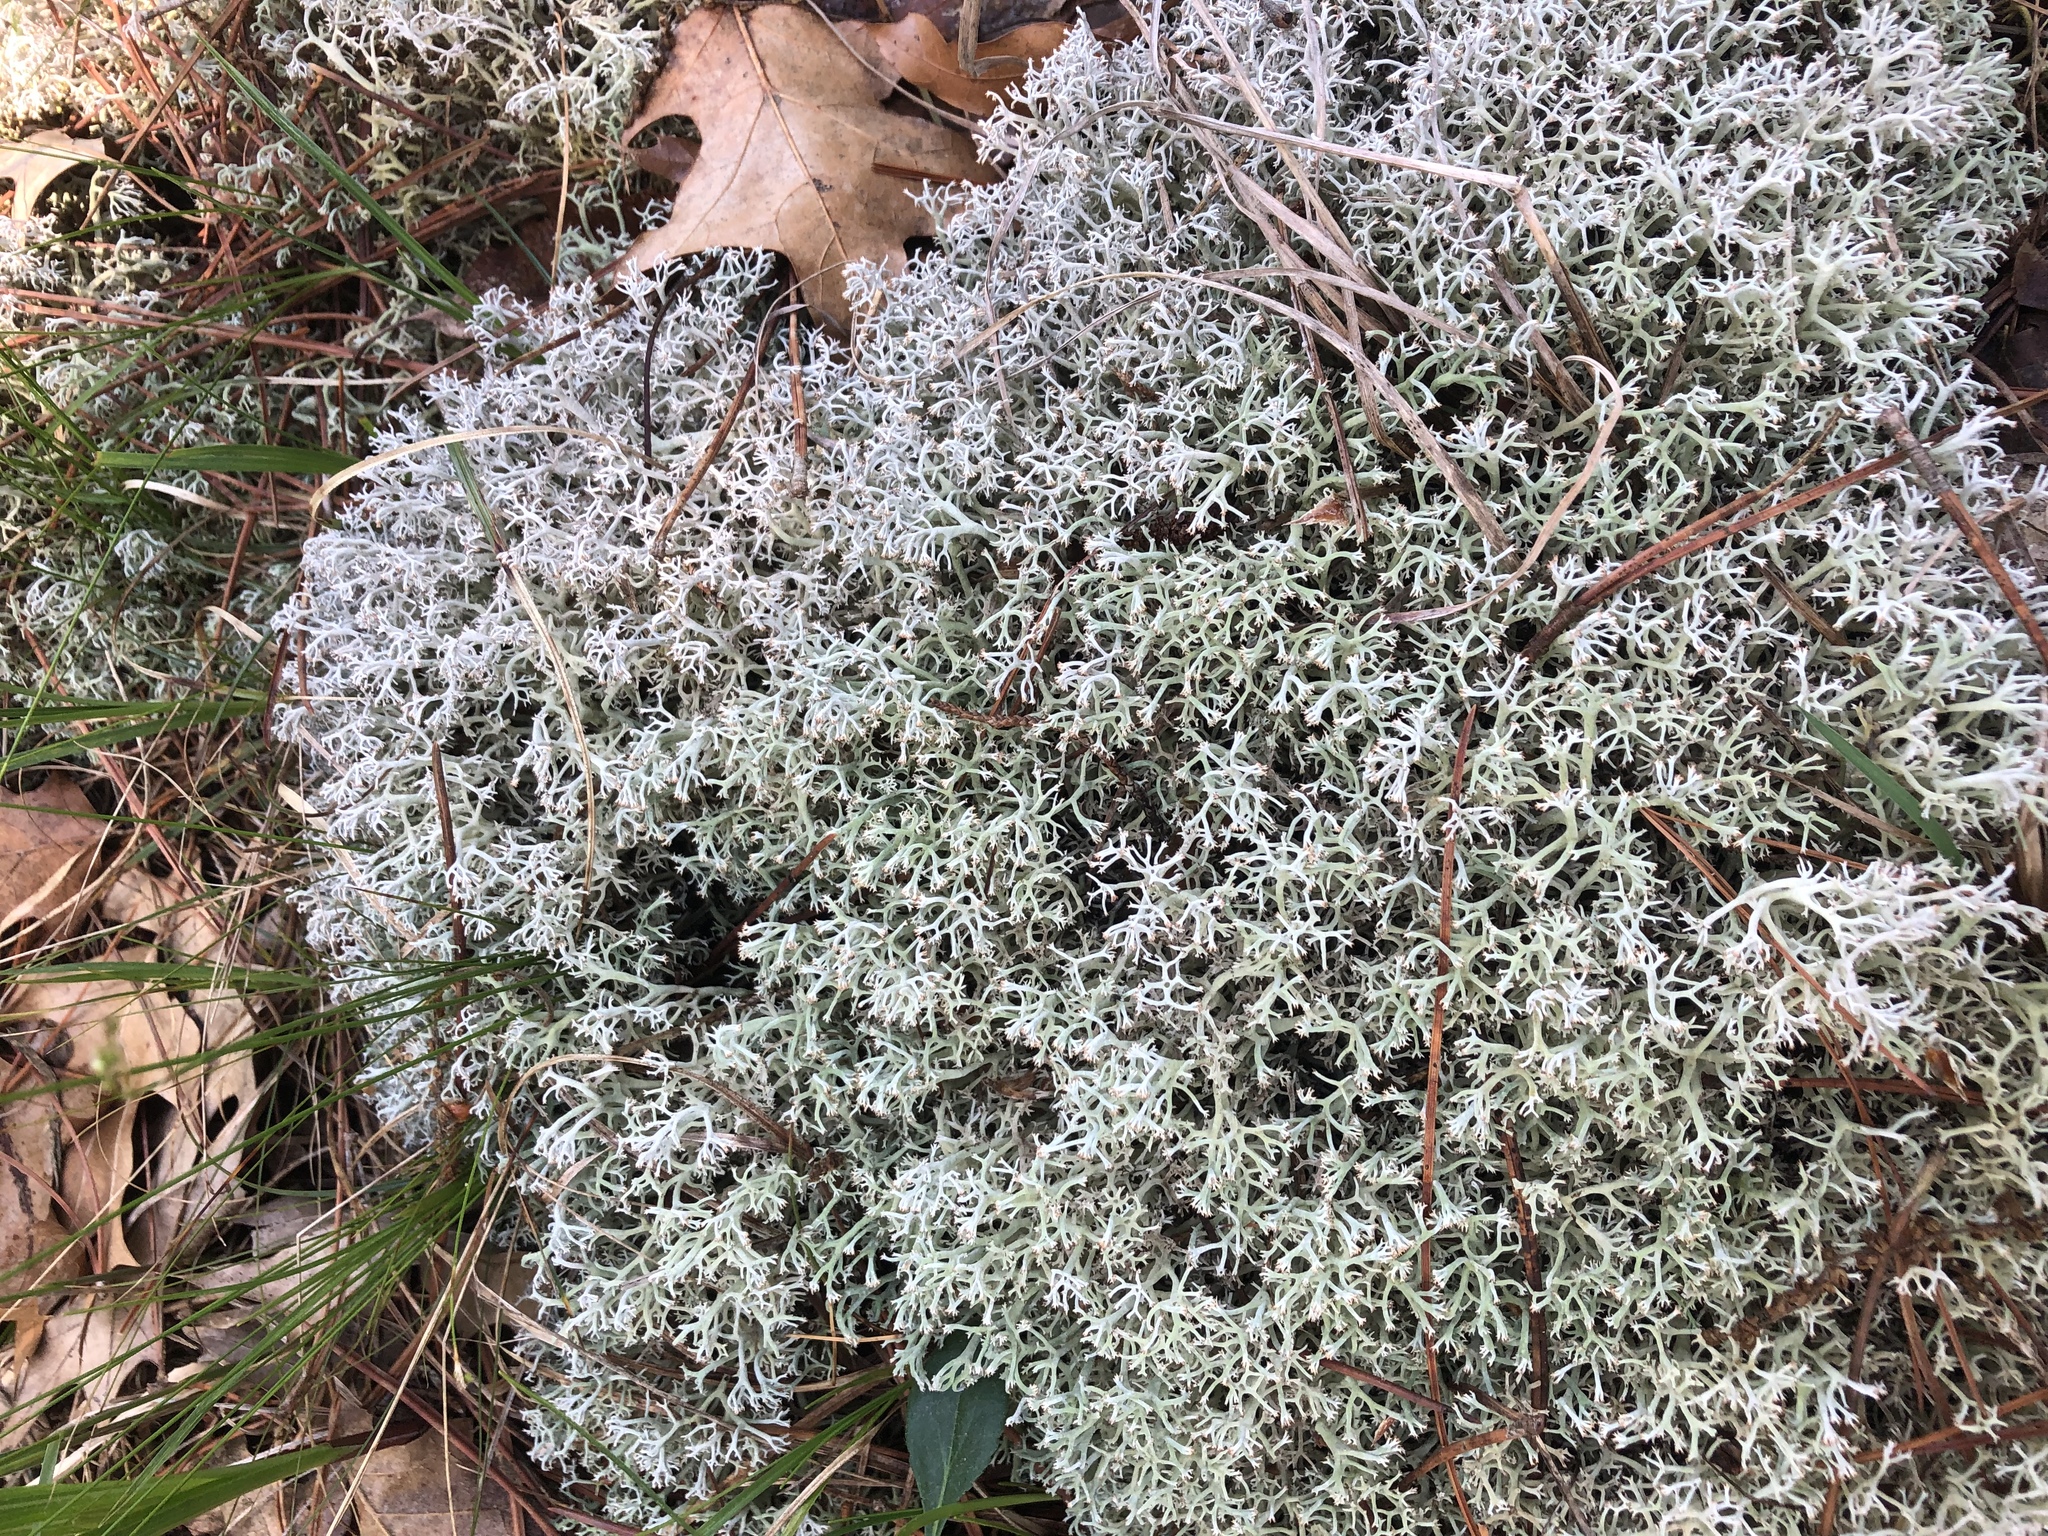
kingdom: Fungi
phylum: Ascomycota
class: Lecanoromycetes
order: Lecanorales
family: Cladoniaceae
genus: Cladonia
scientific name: Cladonia rangiferina
